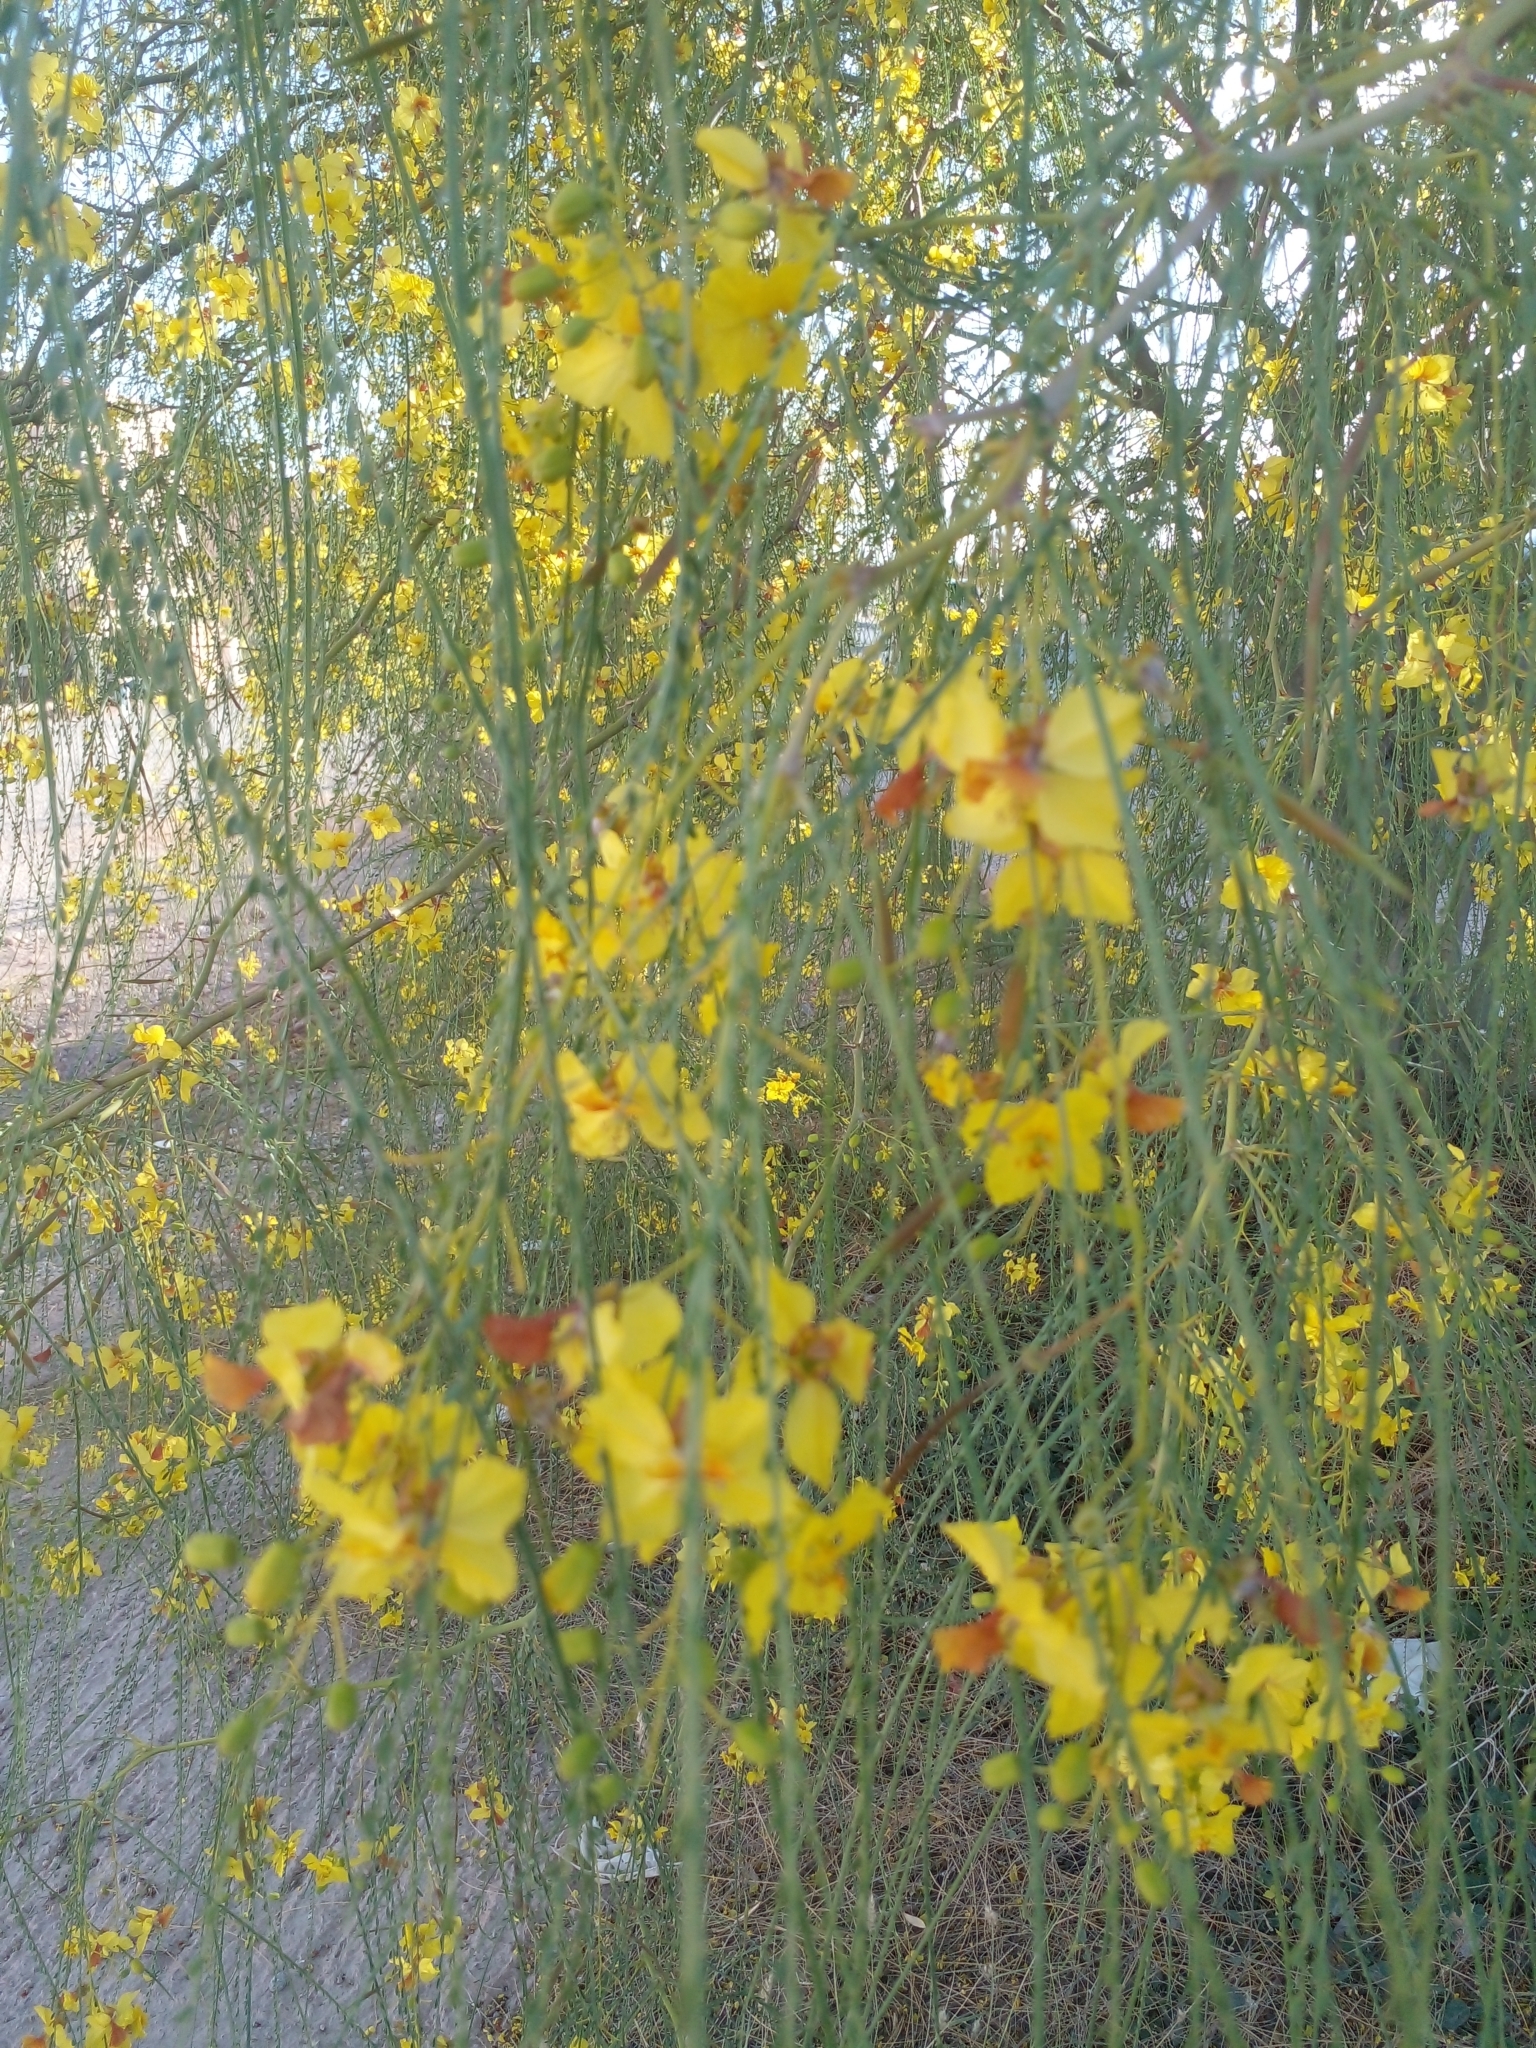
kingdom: Plantae
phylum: Tracheophyta
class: Magnoliopsida
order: Fabales
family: Fabaceae
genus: Parkinsonia
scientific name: Parkinsonia aculeata
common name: Jerusalem thorn
